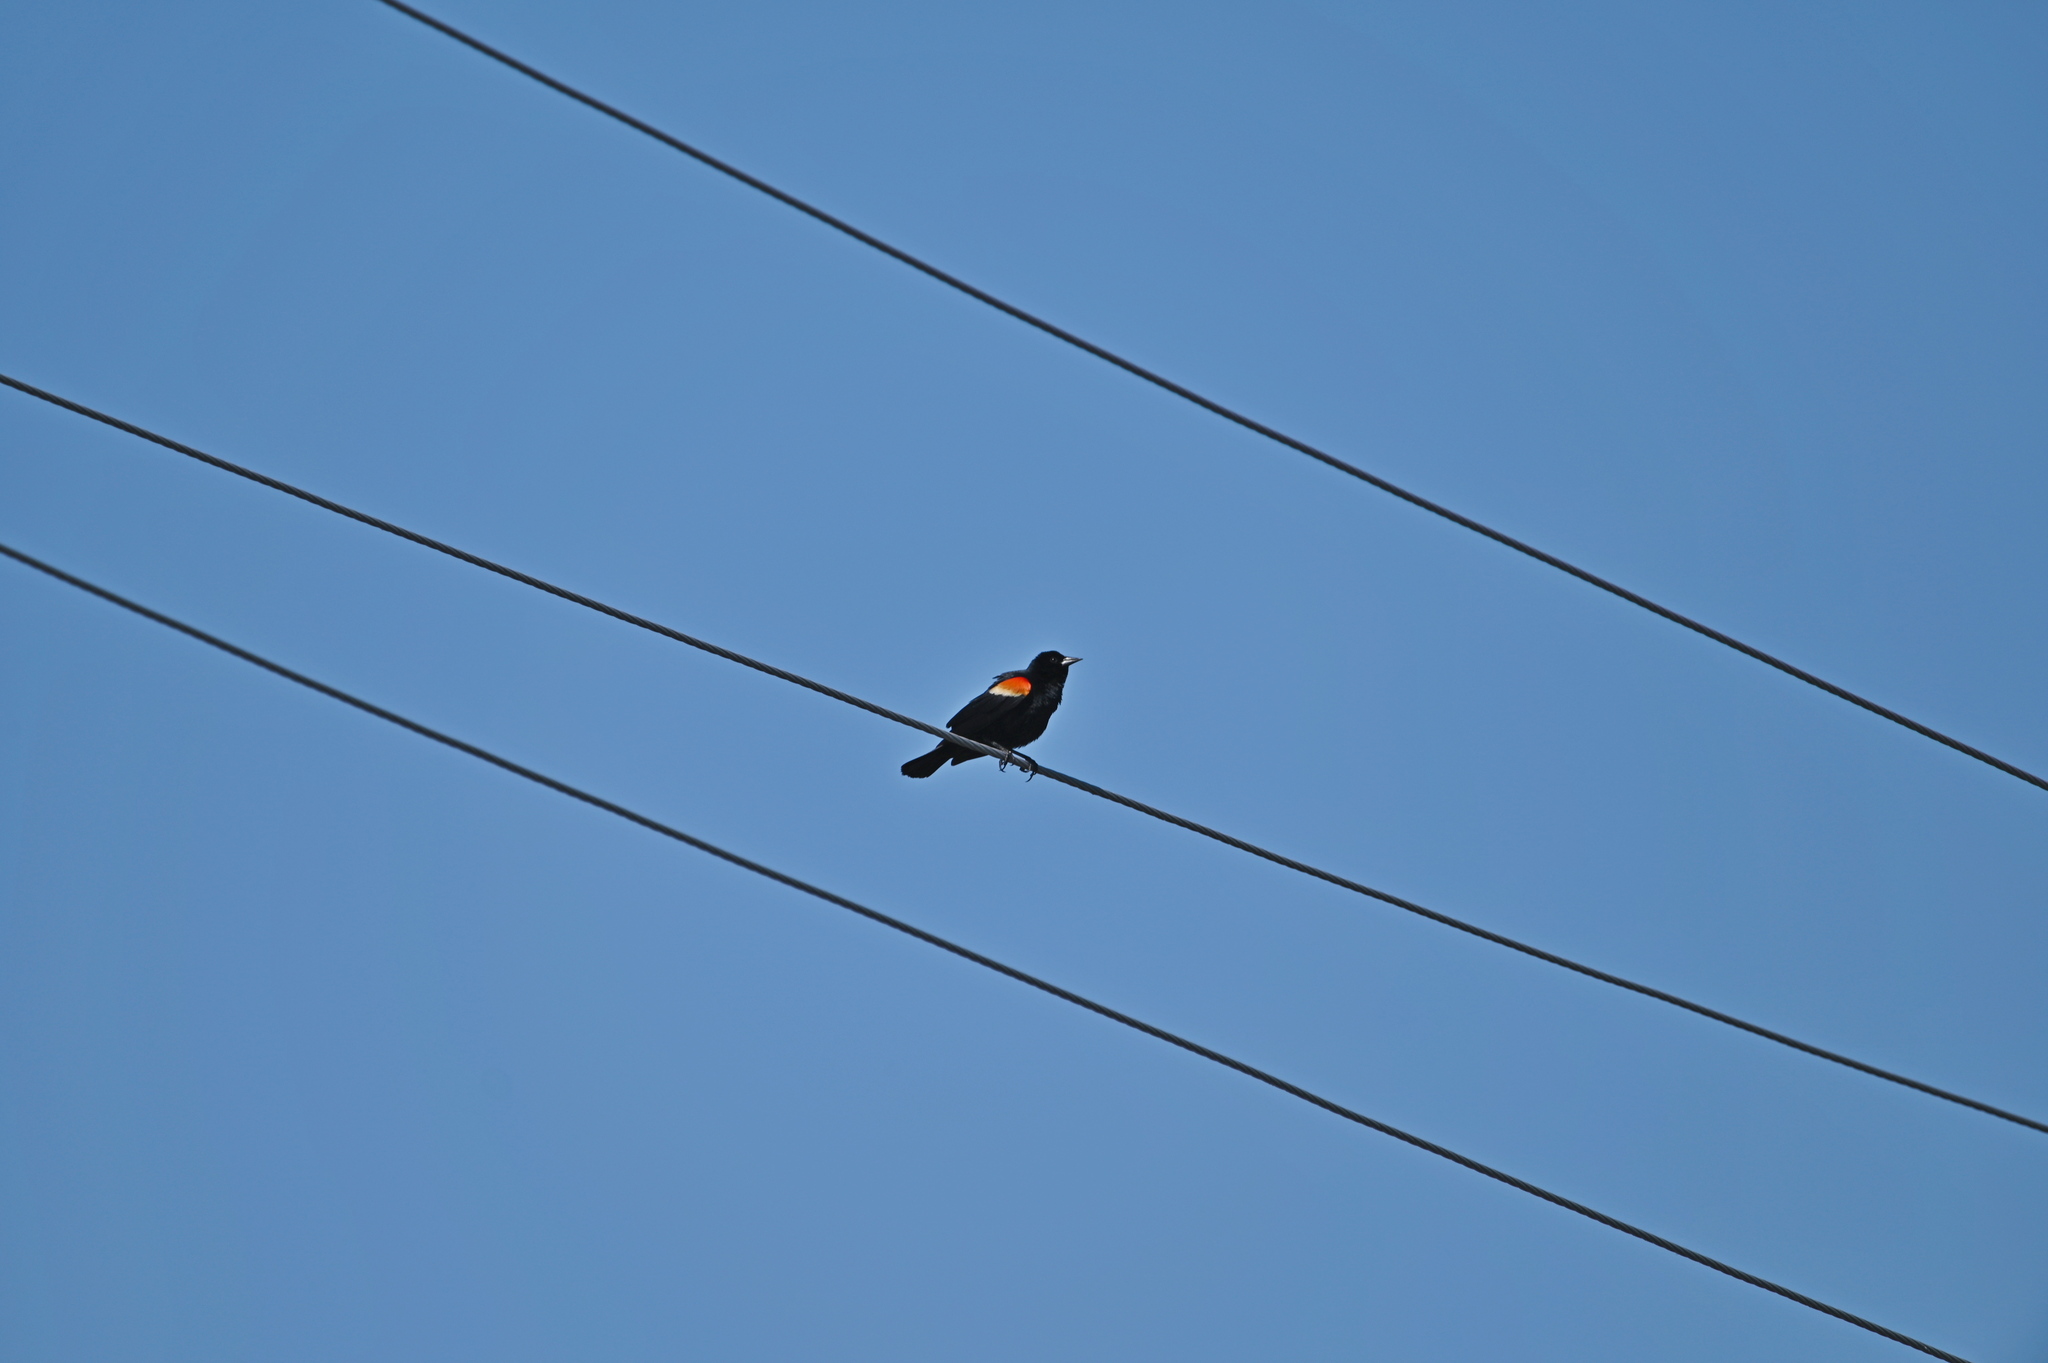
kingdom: Animalia
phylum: Chordata
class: Aves
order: Passeriformes
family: Icteridae
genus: Agelaius
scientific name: Agelaius phoeniceus
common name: Red-winged blackbird
